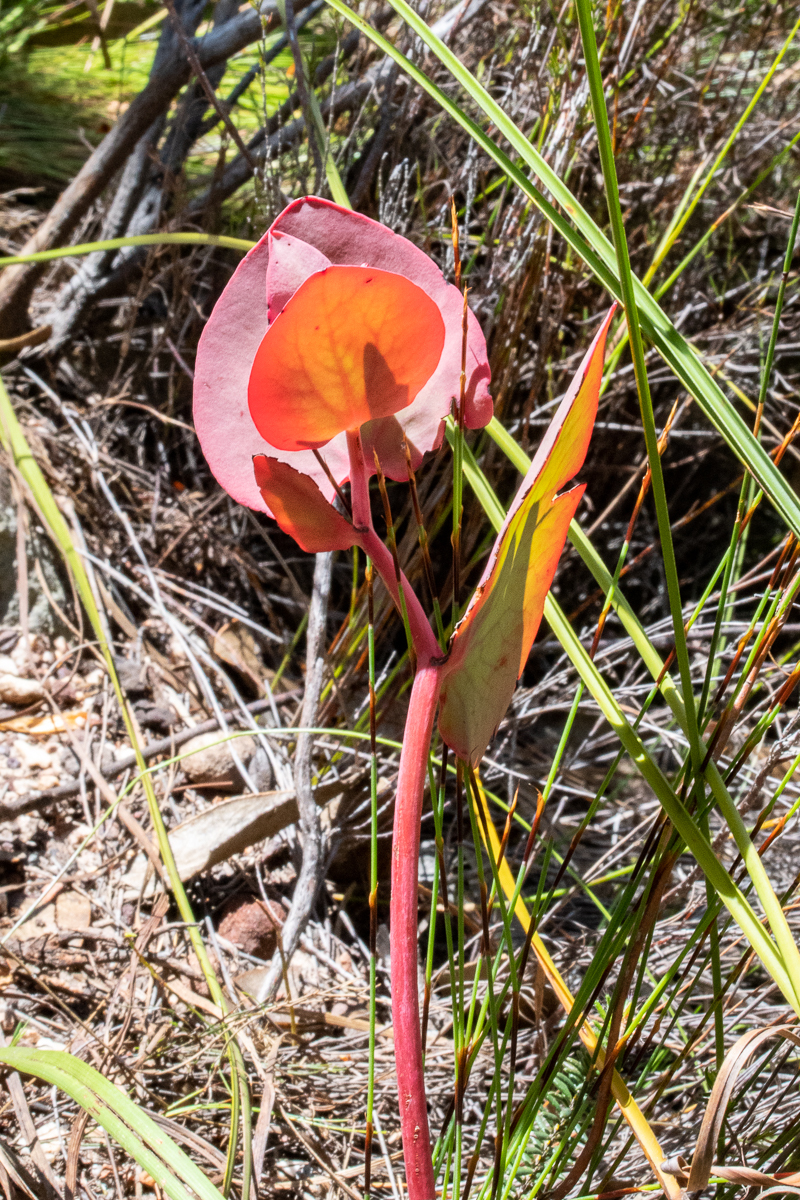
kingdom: Plantae
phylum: Tracheophyta
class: Magnoliopsida
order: Proteales
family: Proteaceae
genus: Protea
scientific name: Protea cordata
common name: Heart-leaf sugarbush
